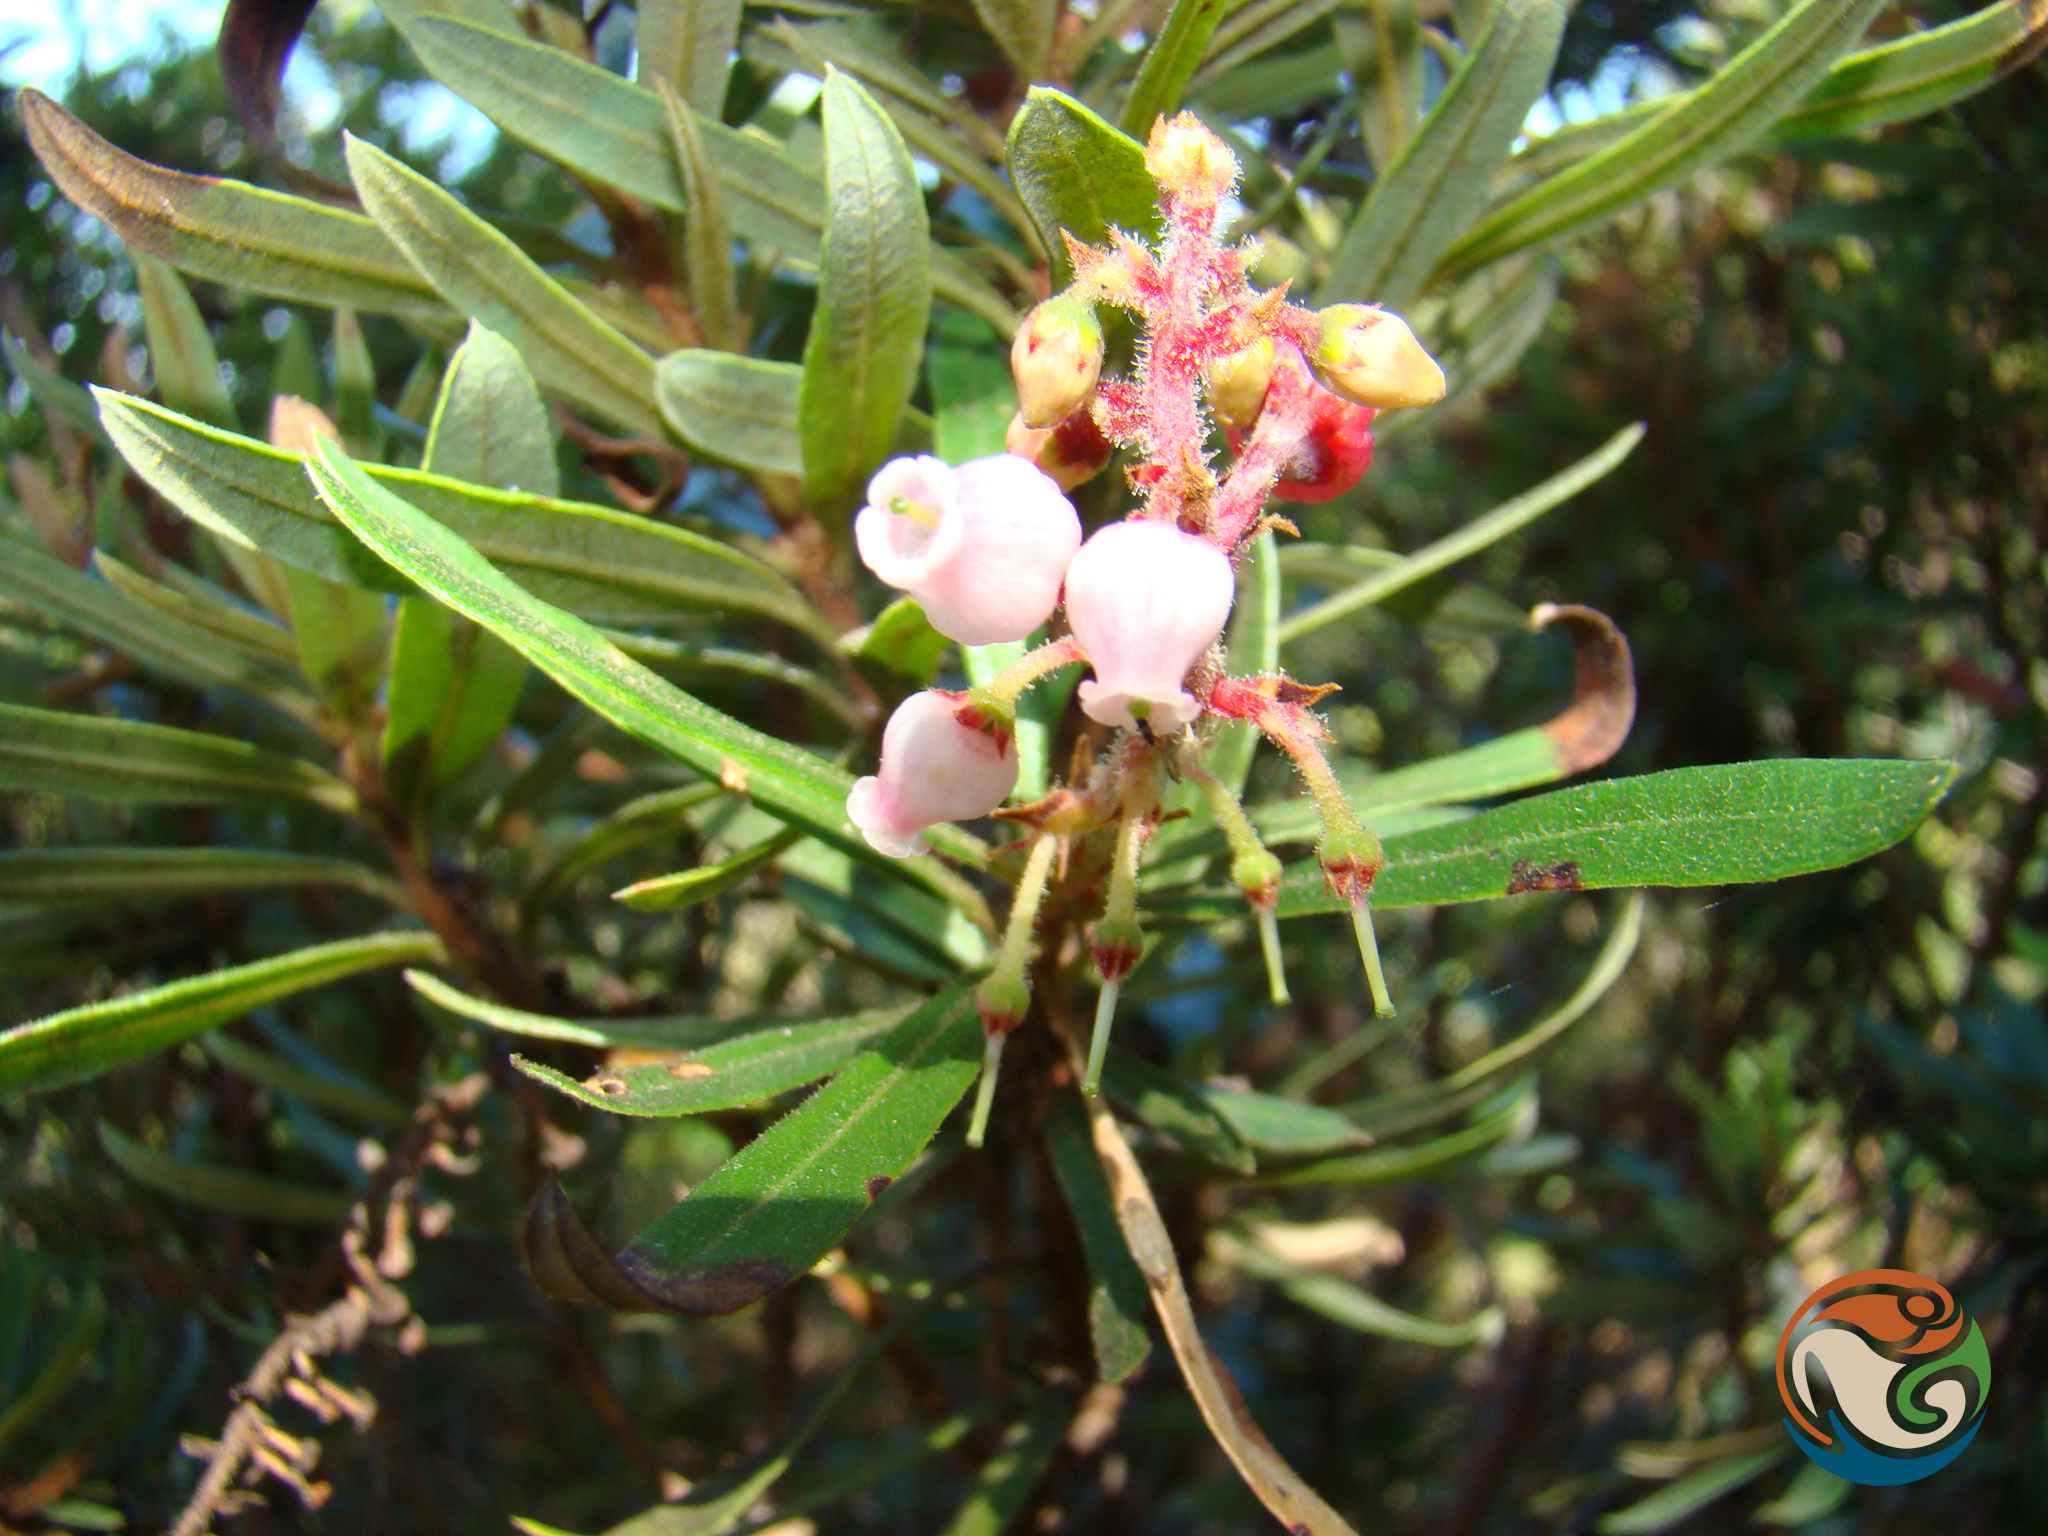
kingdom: Plantae
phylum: Tracheophyta
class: Magnoliopsida
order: Ericales
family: Ericaceae
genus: Comarostaphylis
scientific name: Comarostaphylis polifolia
